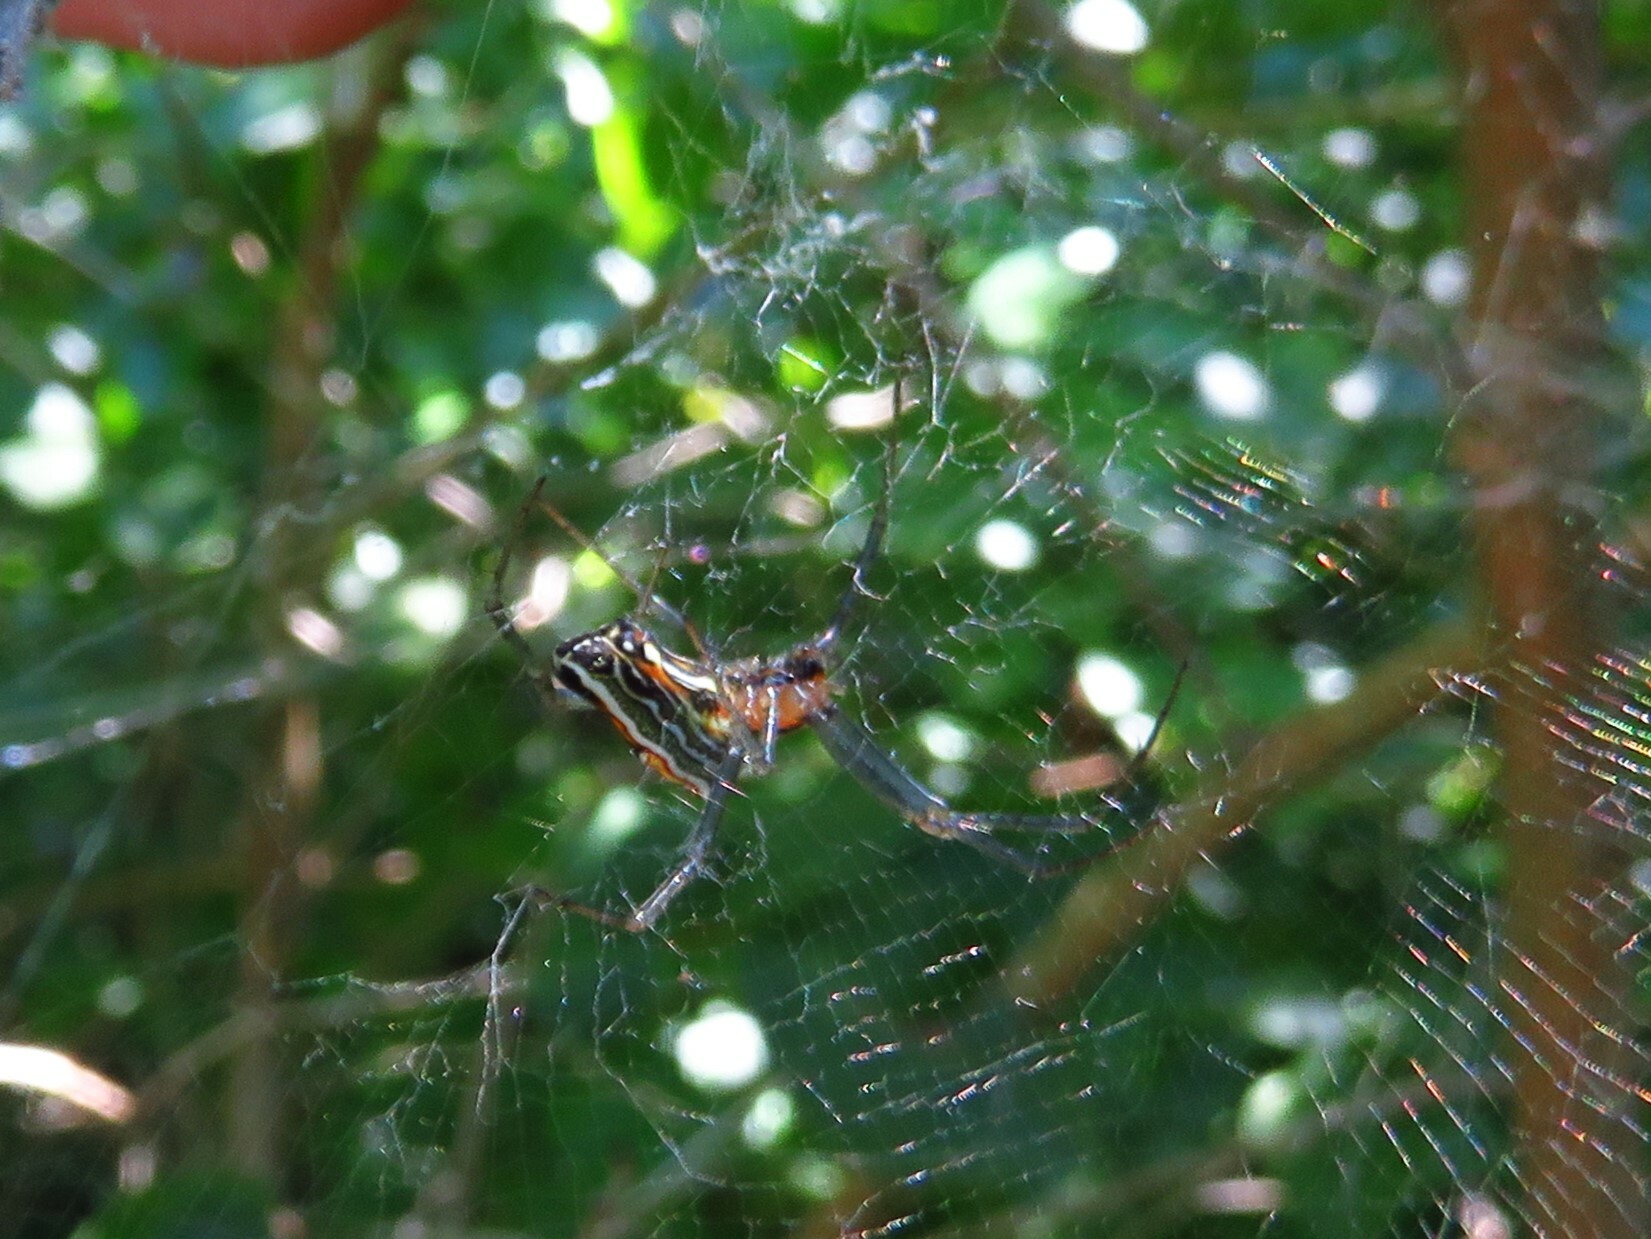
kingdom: Animalia
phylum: Arthropoda
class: Arachnida
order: Araneae
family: Araneidae
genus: Mecynogea
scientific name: Mecynogea lemniscata
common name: Orb weavers
